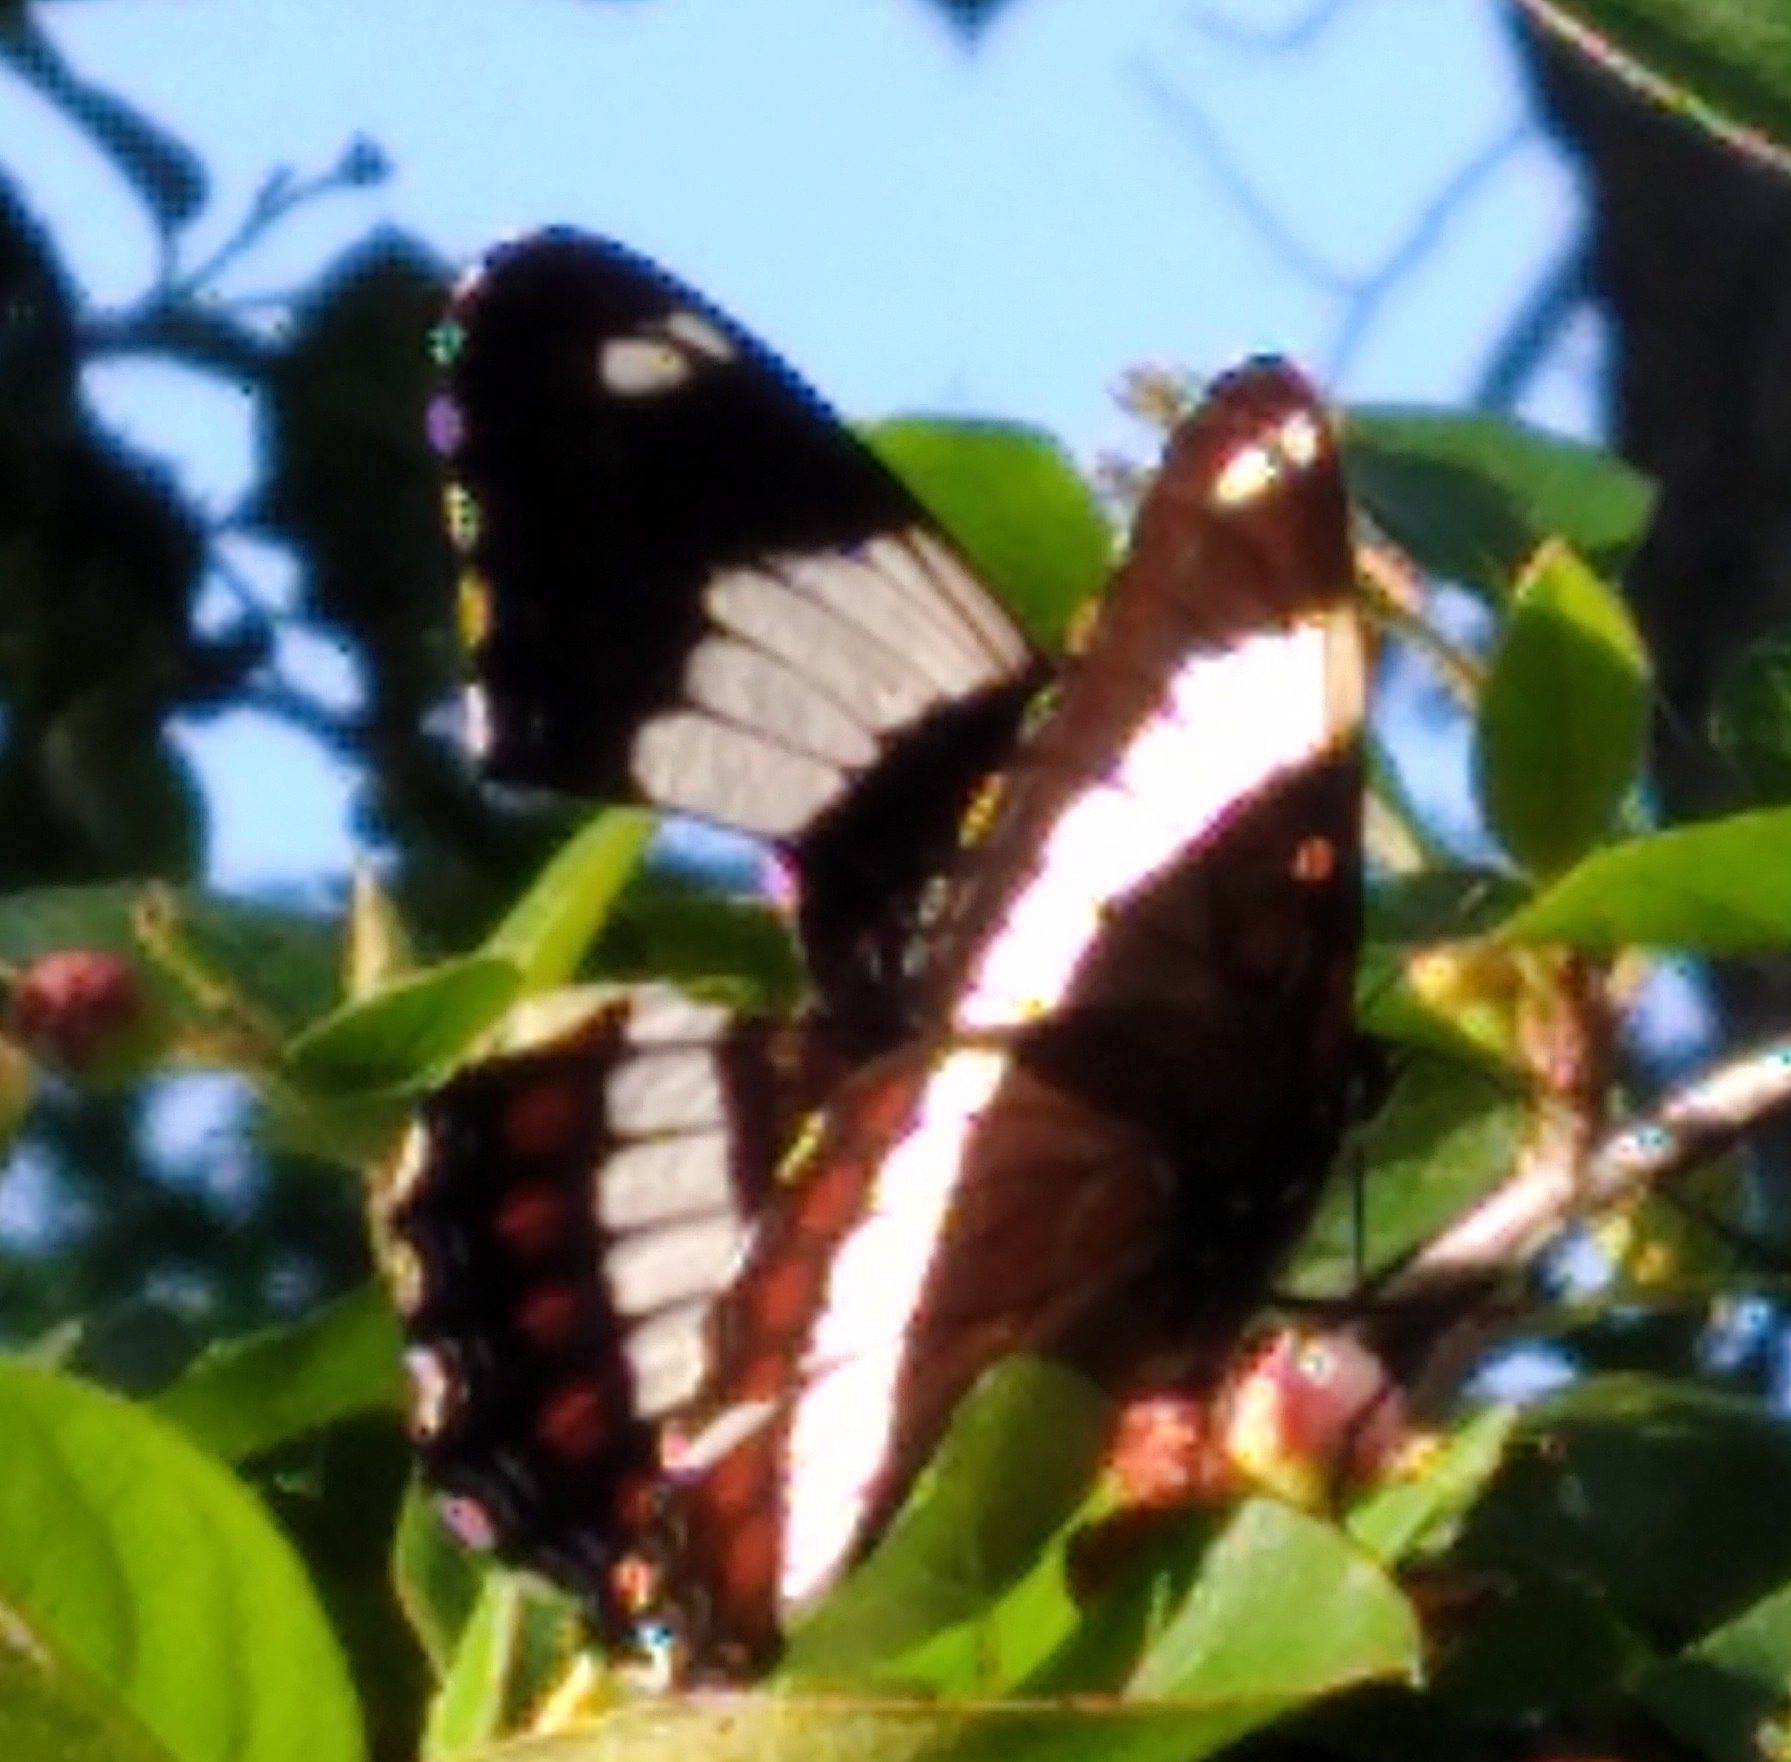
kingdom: Animalia
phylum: Arthropoda
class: Insecta
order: Lepidoptera
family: Nymphalidae
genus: Limenitis
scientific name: Limenitis arthemis
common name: Red-spotted admiral
